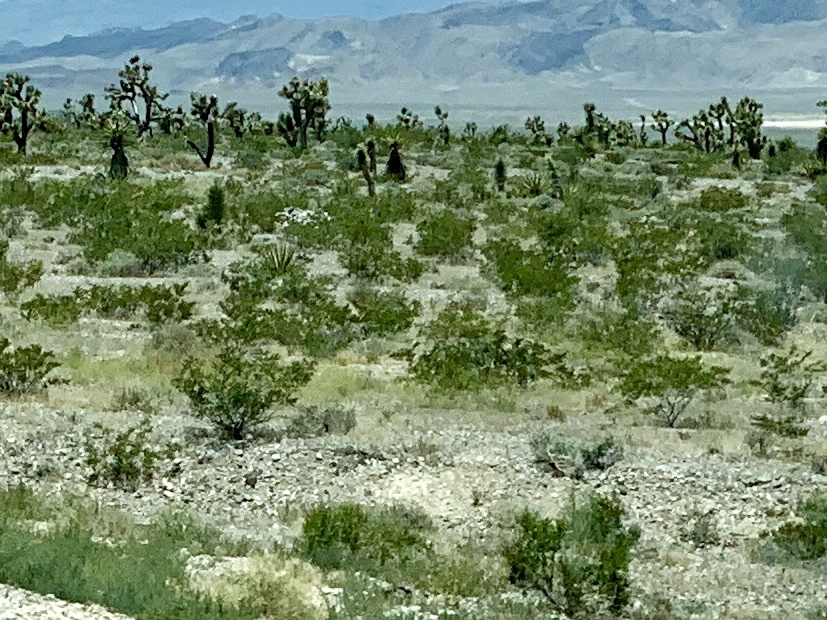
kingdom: Plantae
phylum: Tracheophyta
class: Magnoliopsida
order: Zygophyllales
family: Zygophyllaceae
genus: Larrea
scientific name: Larrea tridentata
